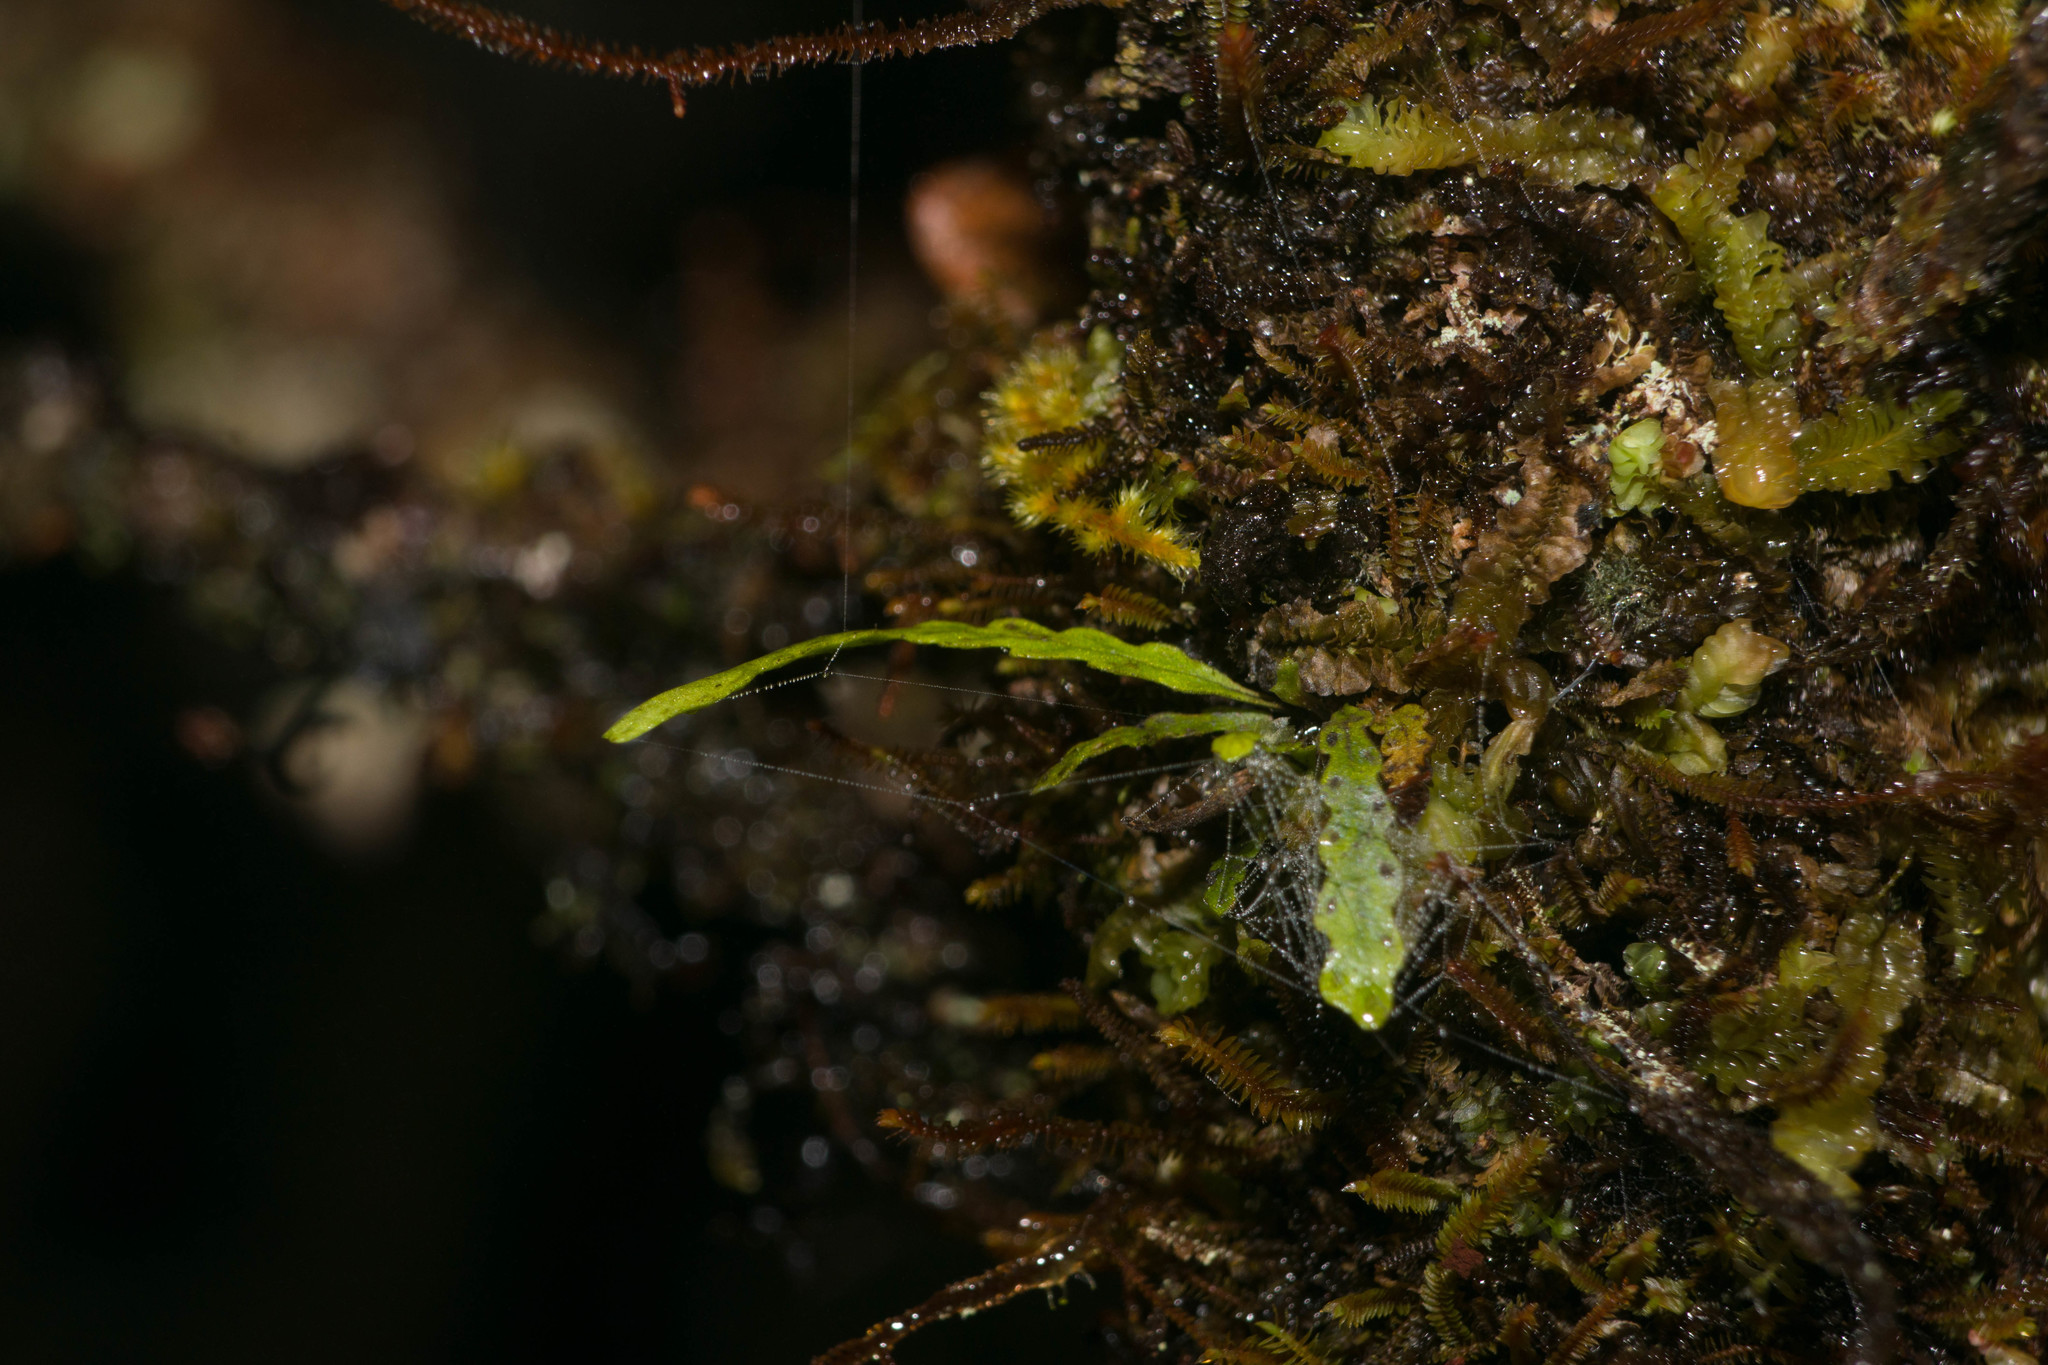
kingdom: Plantae
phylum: Tracheophyta
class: Polypodiopsida
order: Polypodiales
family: Polypodiaceae
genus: Stenogrammitis
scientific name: Stenogrammitis saffordii
